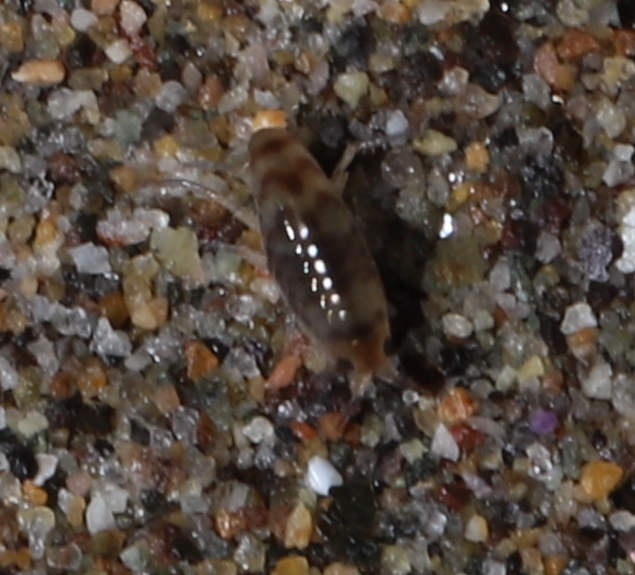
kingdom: Animalia
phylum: Arthropoda
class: Malacostraca
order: Amphipoda
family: Talitridae
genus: Orchestoidea
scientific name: Orchestoidea tuberculata
